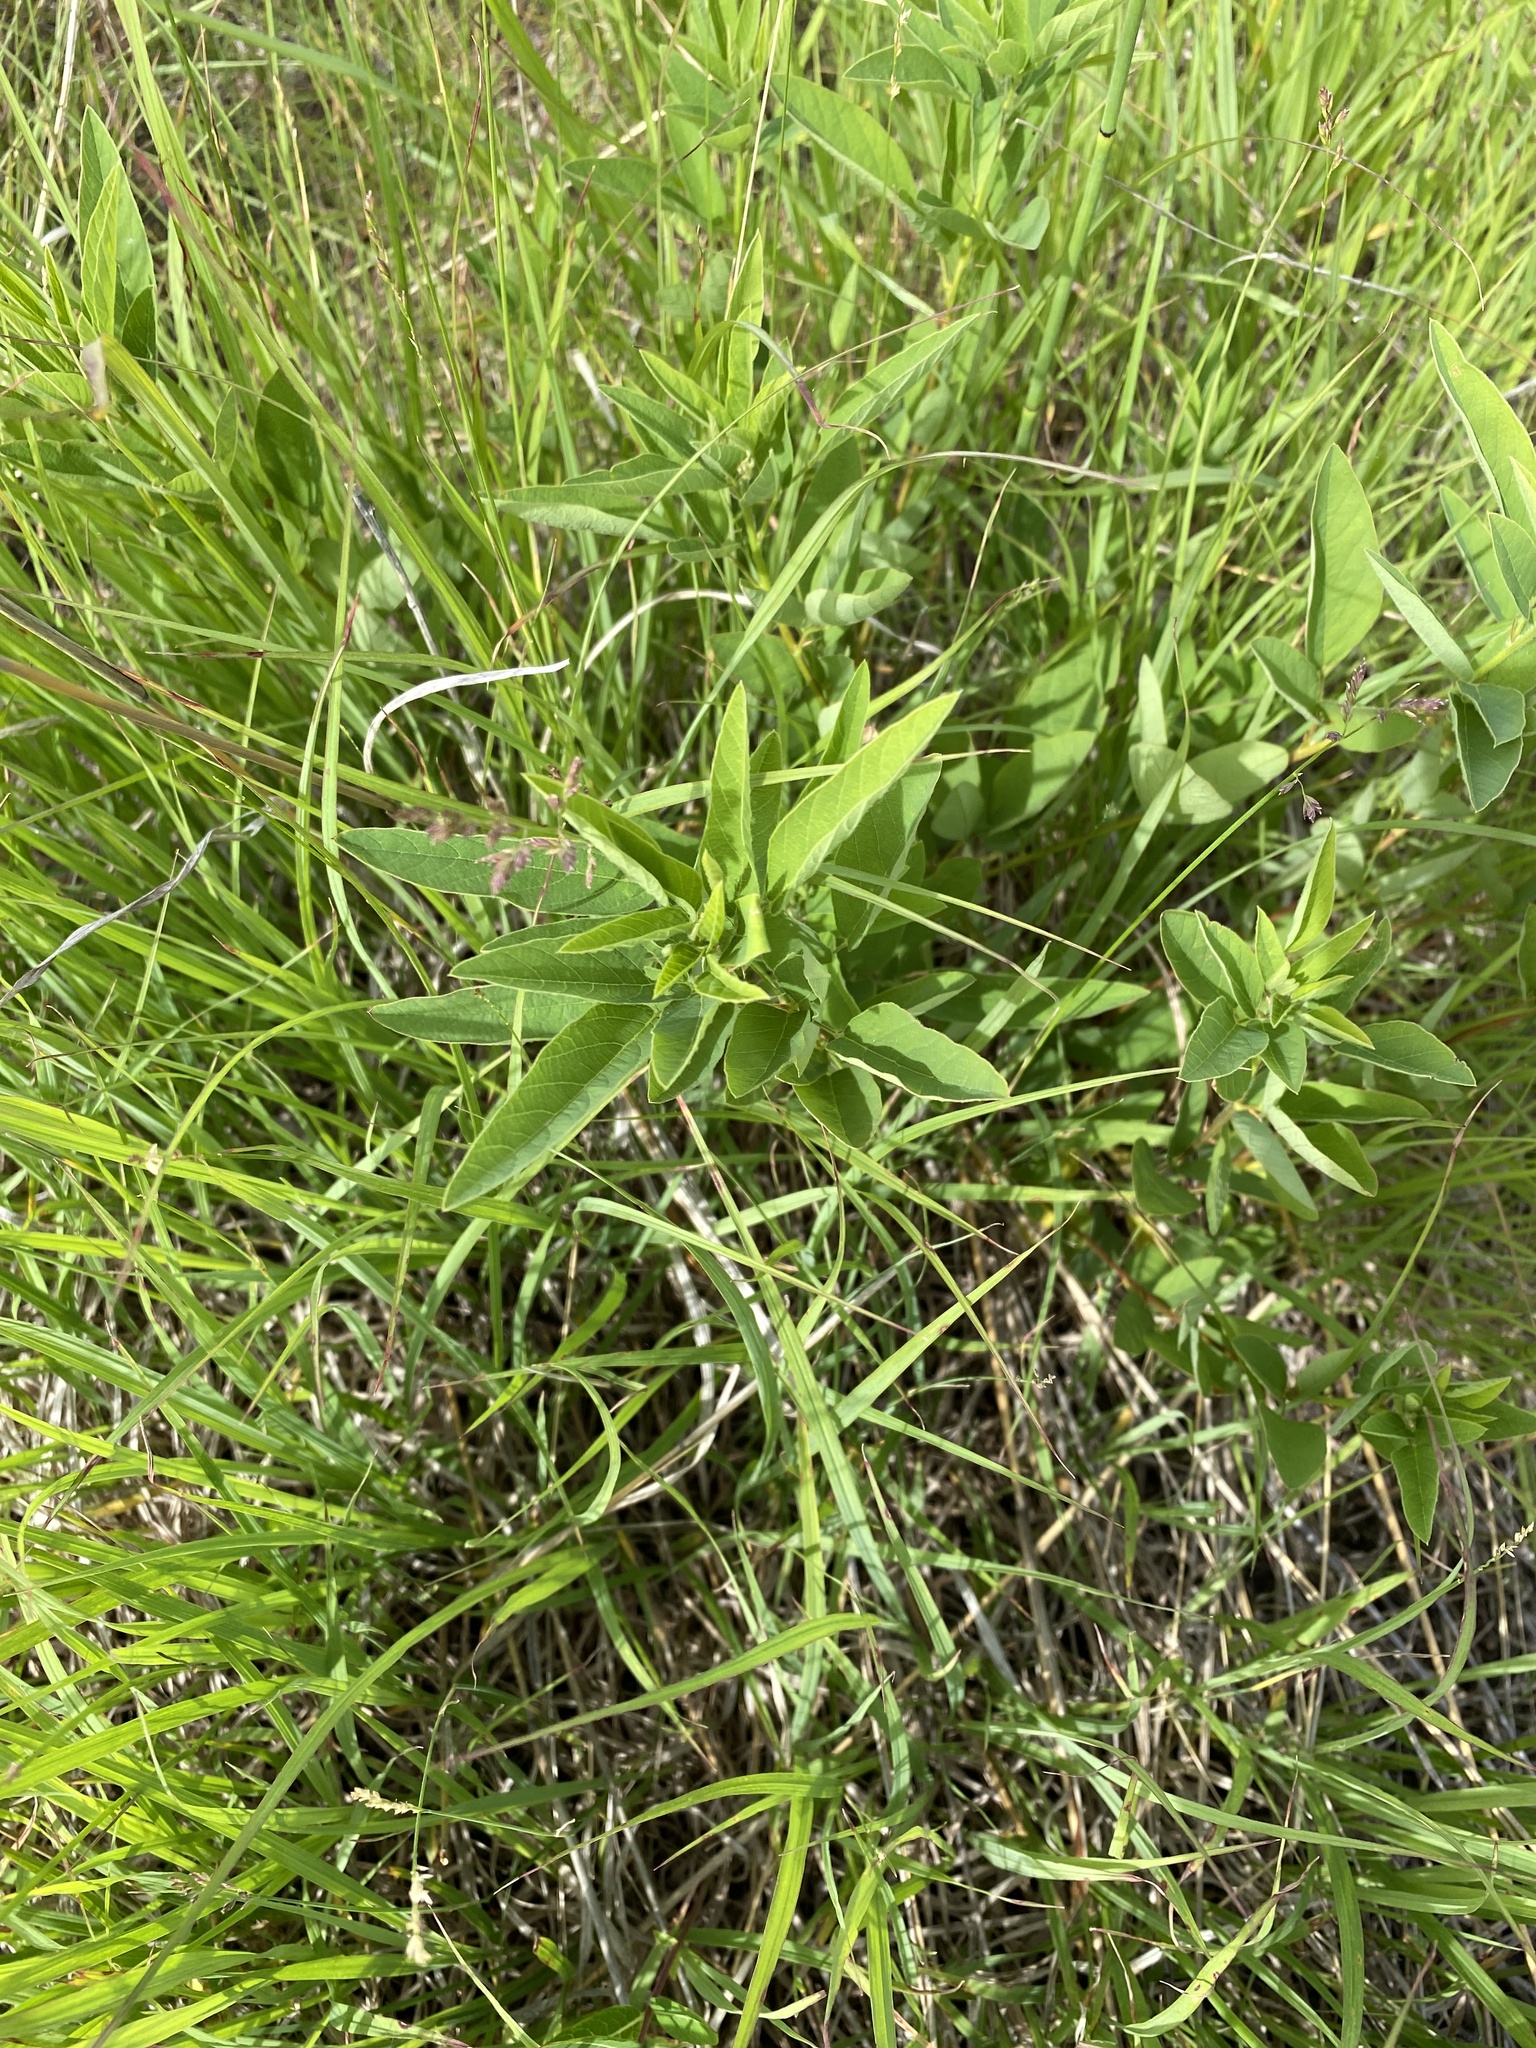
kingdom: Plantae
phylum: Tracheophyta
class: Magnoliopsida
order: Fabales
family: Fabaceae
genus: Desmodium
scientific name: Desmodium canadense
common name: Canada tick-trefoil
